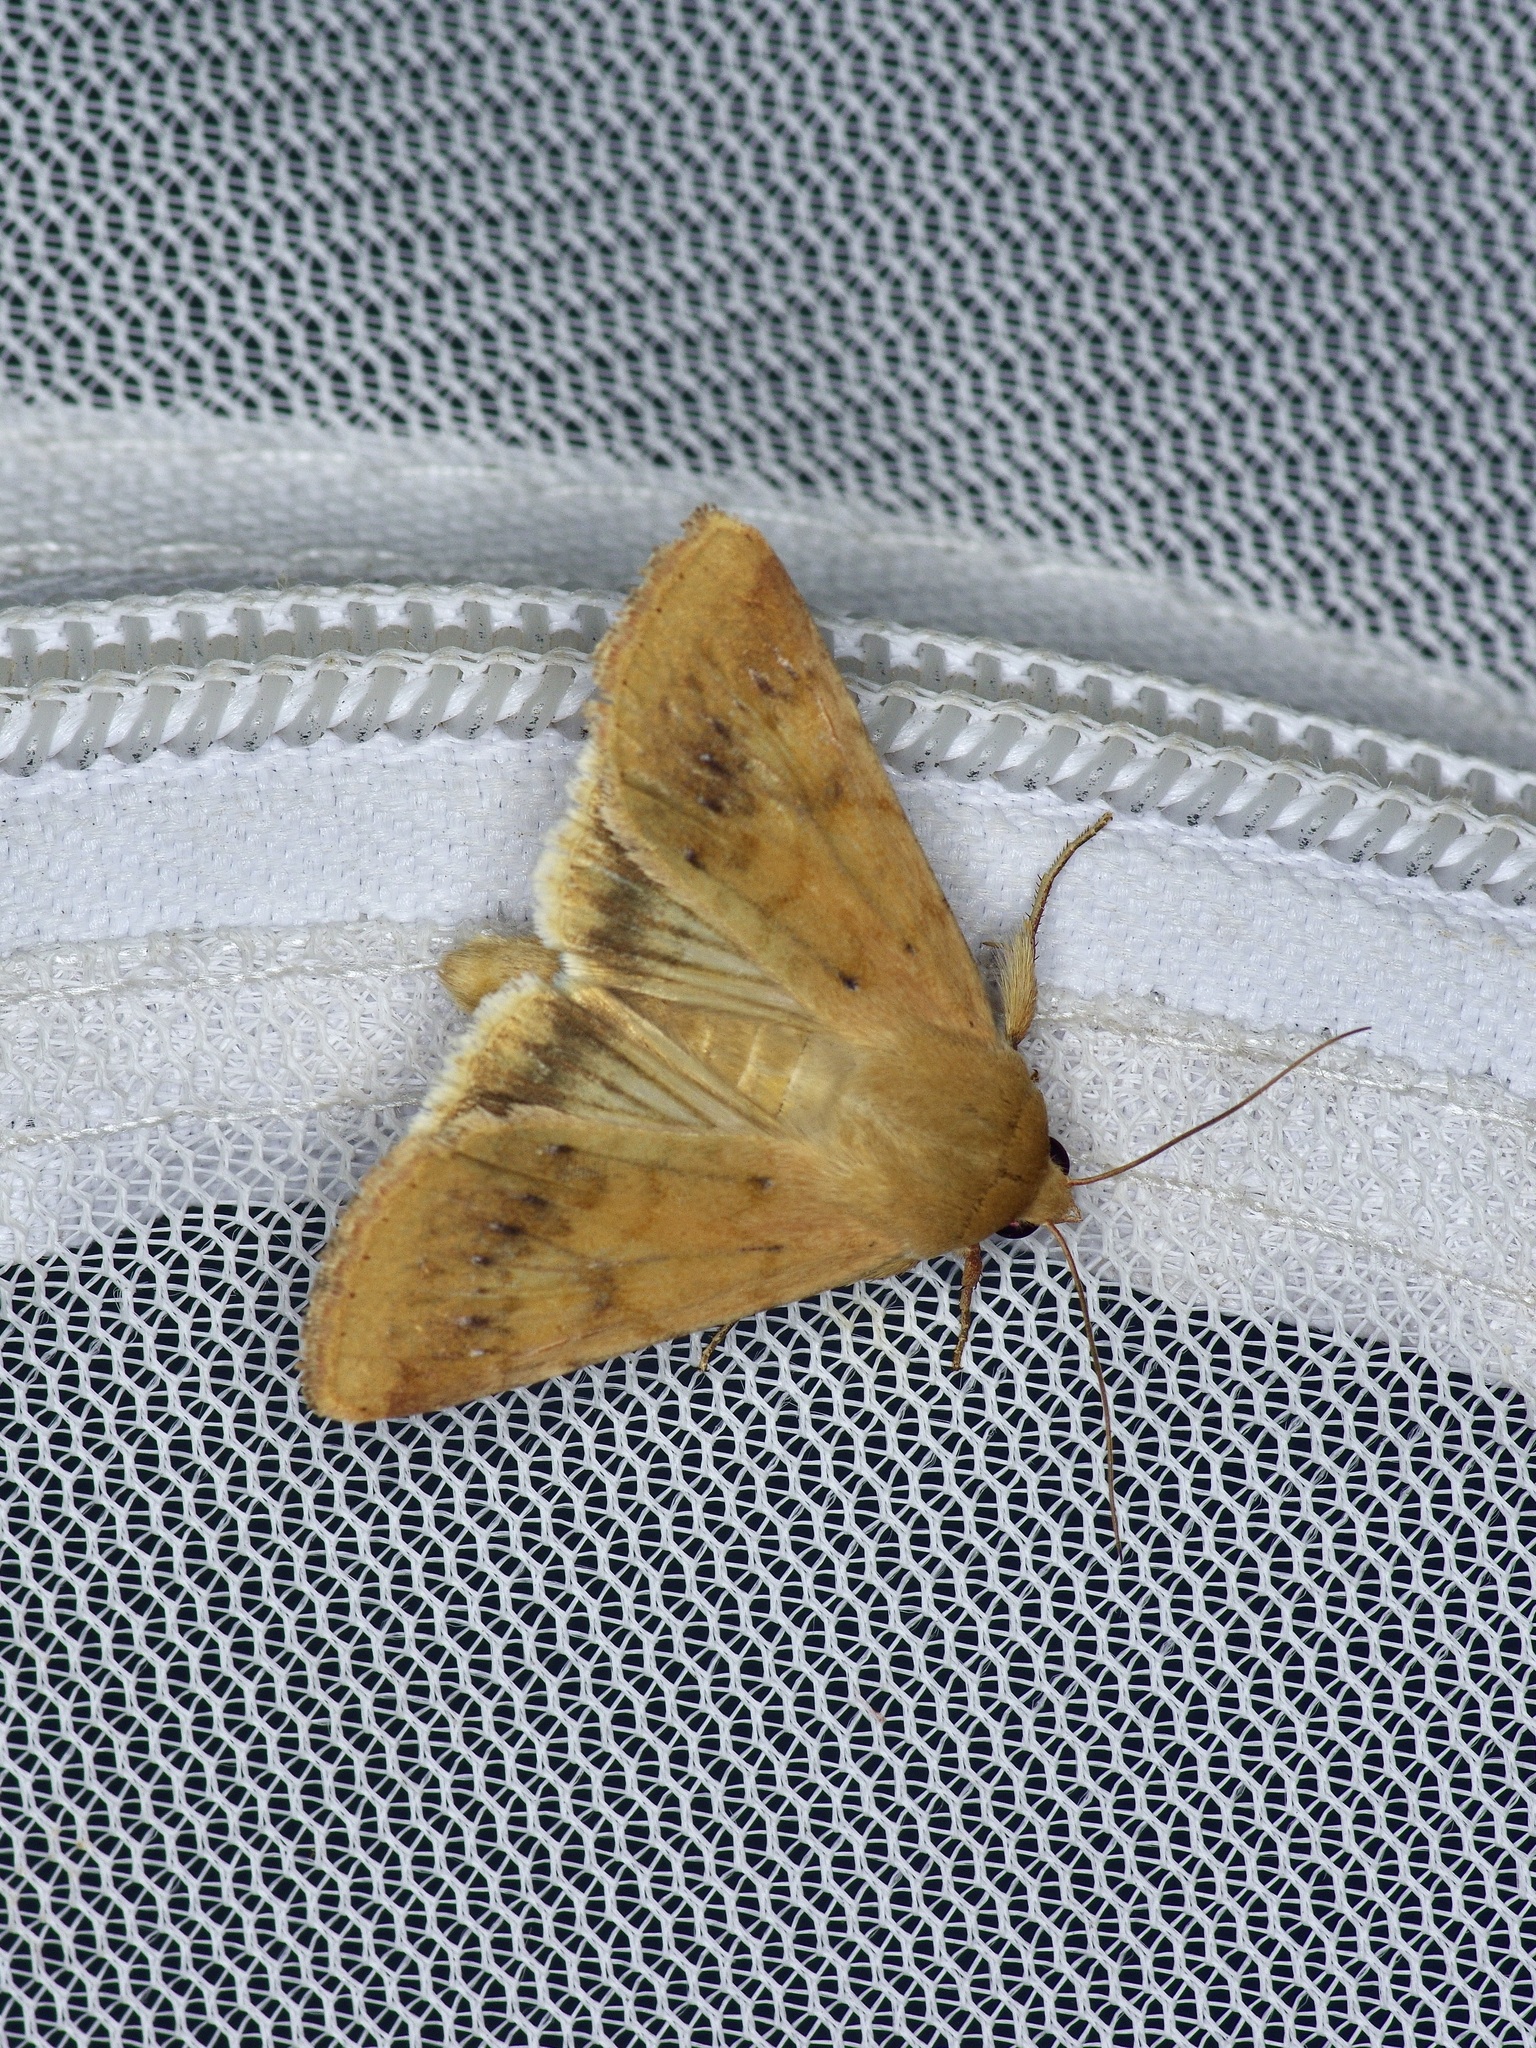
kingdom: Animalia
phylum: Arthropoda
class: Insecta
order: Lepidoptera
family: Noctuidae
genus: Helicoverpa
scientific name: Helicoverpa zea
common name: Bollworm
